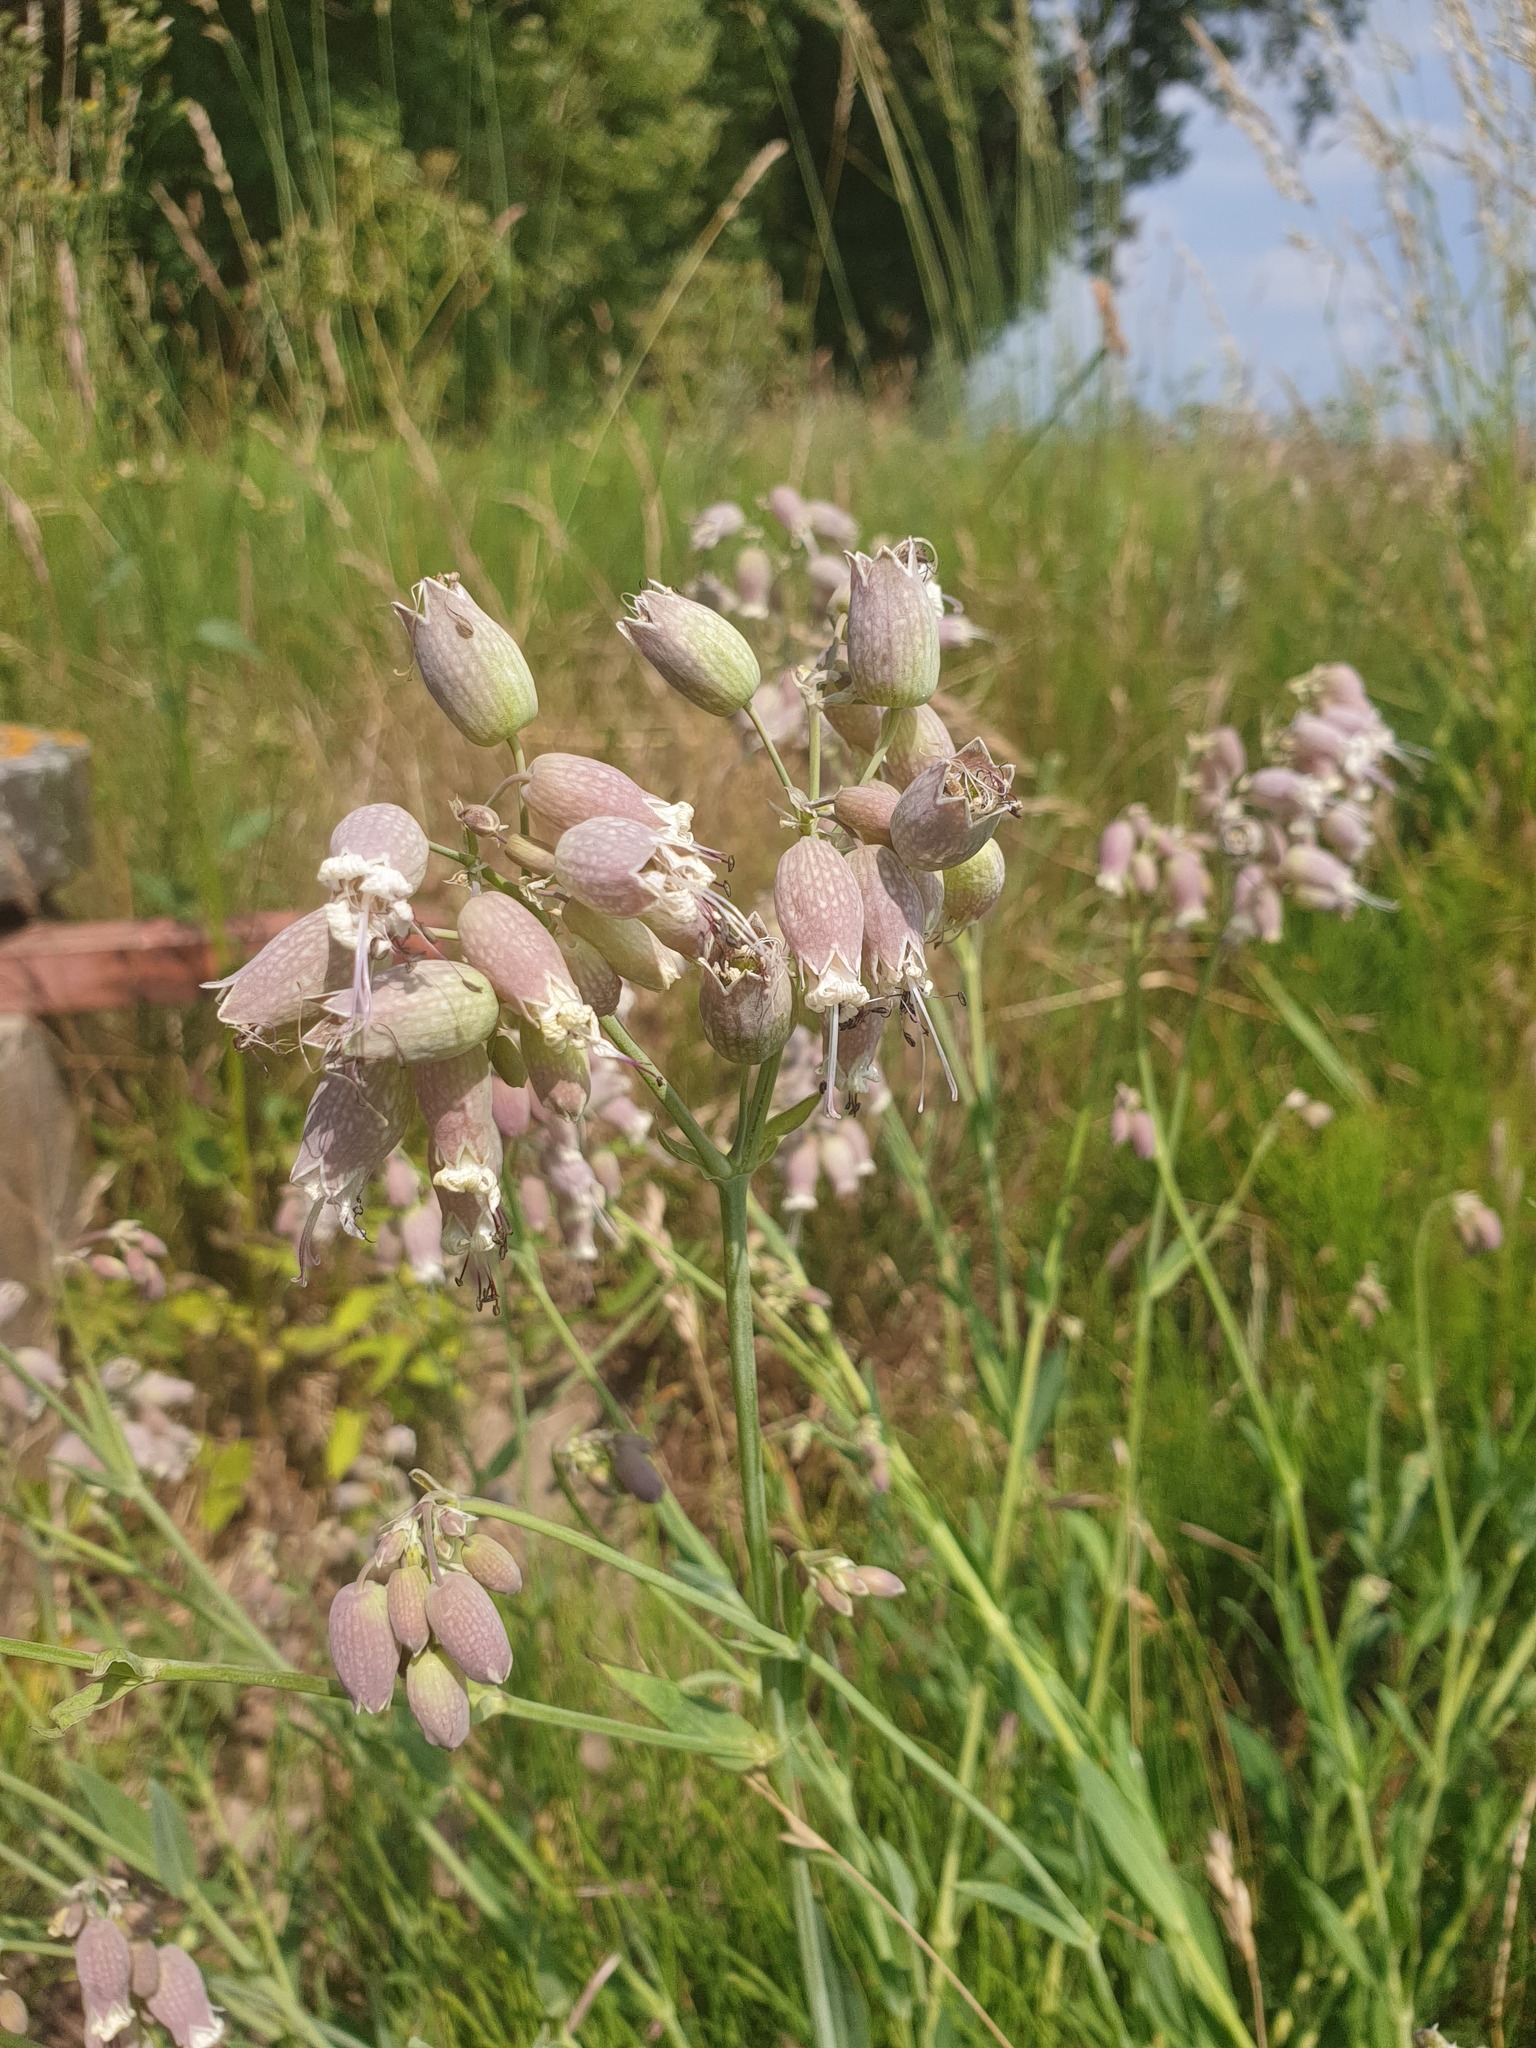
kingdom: Plantae
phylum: Tracheophyta
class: Magnoliopsida
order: Caryophyllales
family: Caryophyllaceae
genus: Silene
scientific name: Silene vulgaris
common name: Bladder campion
